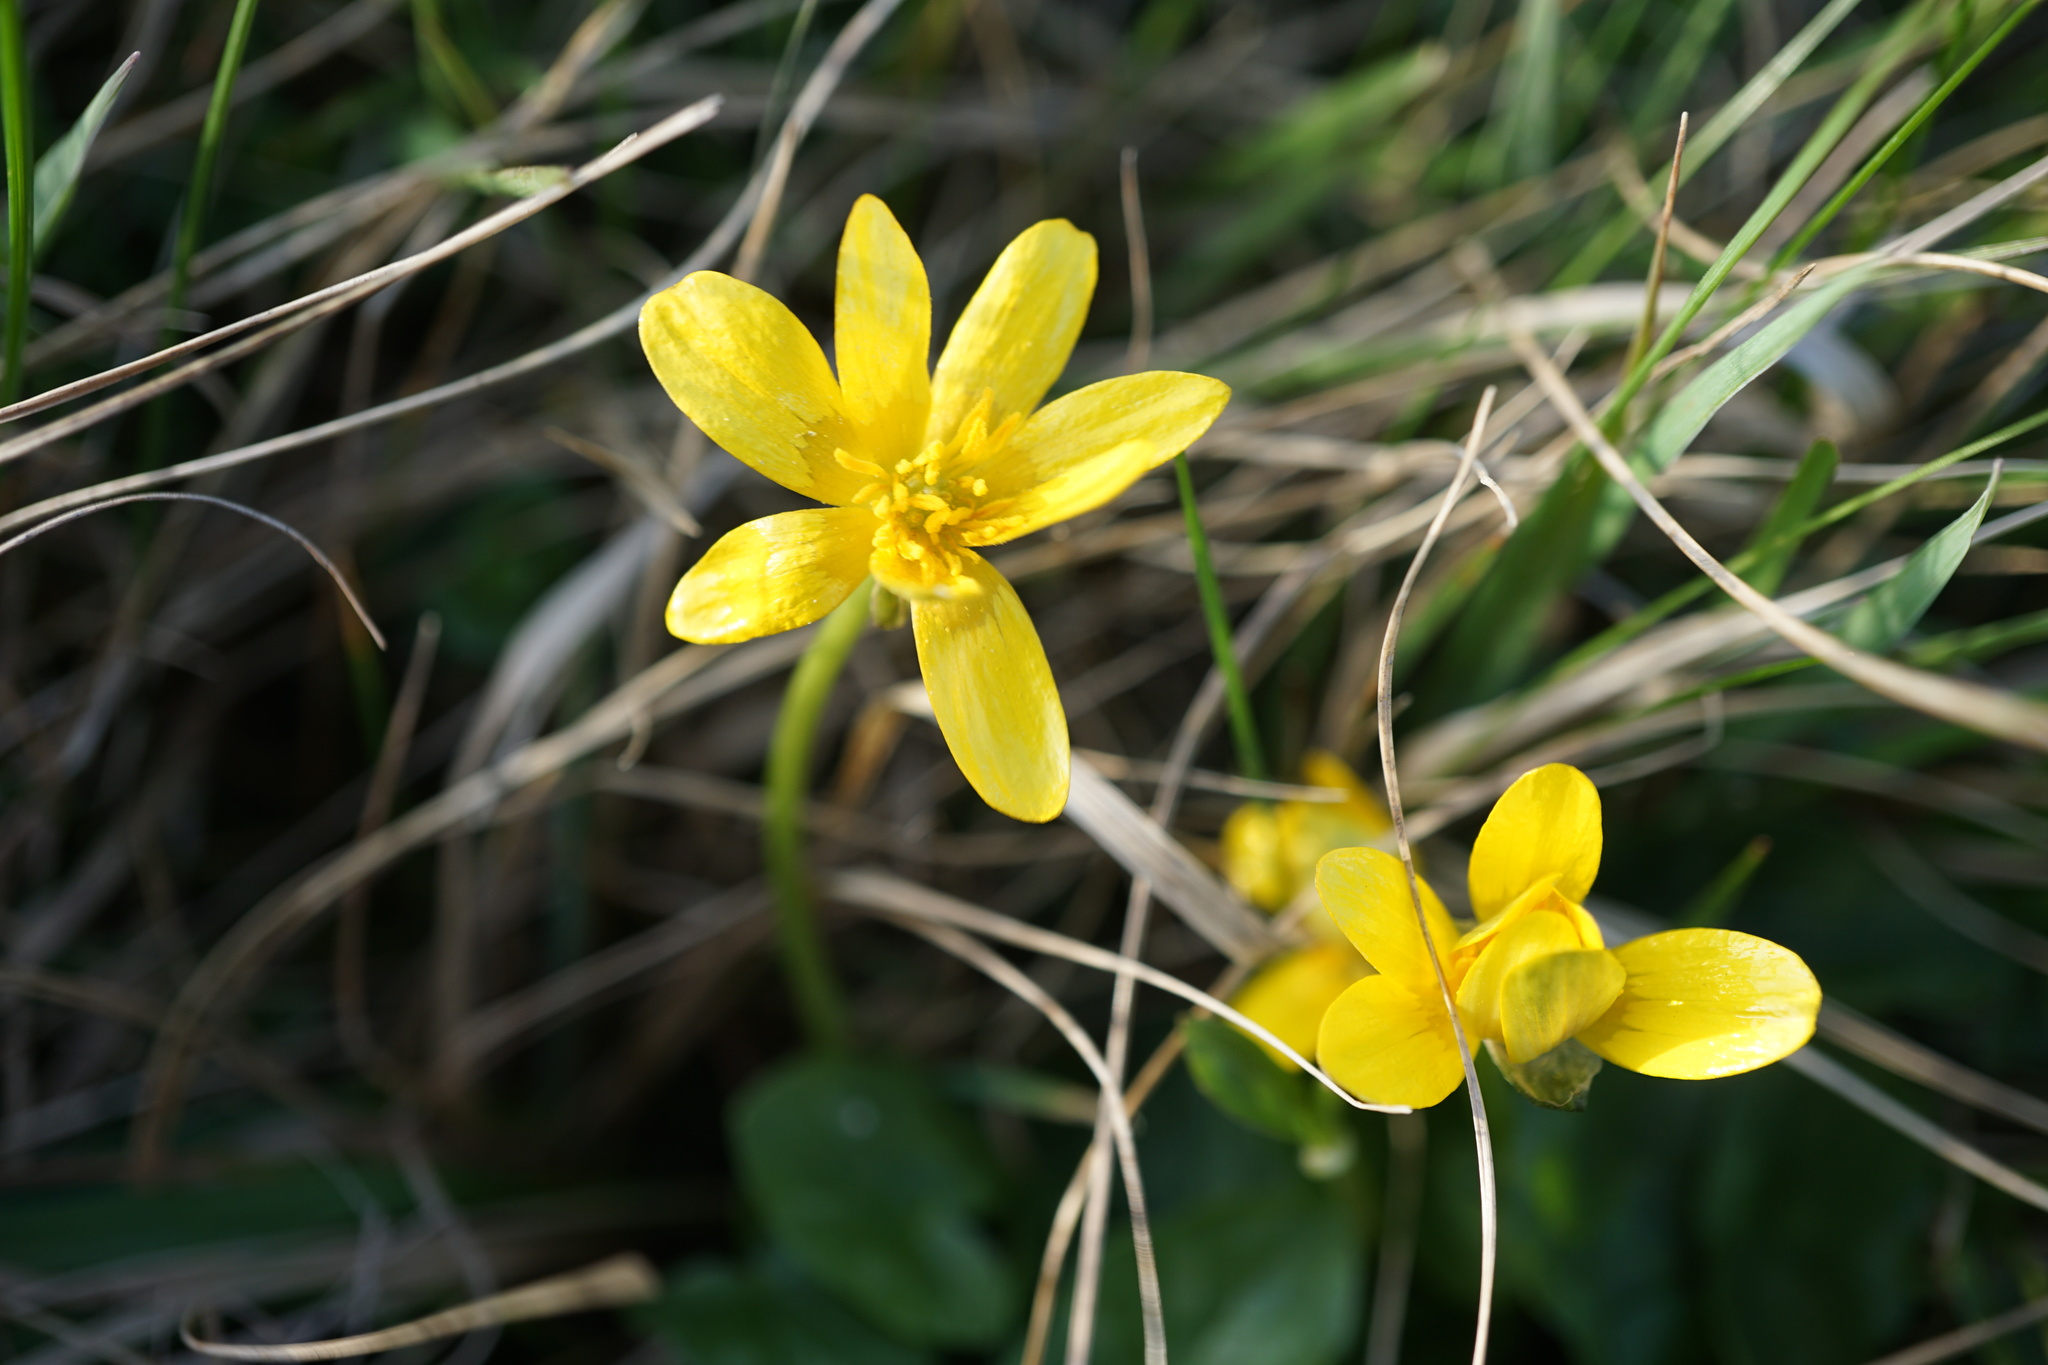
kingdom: Plantae
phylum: Tracheophyta
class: Magnoliopsida
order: Ranunculales
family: Ranunculaceae
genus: Ficaria
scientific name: Ficaria verna
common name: Lesser celandine
